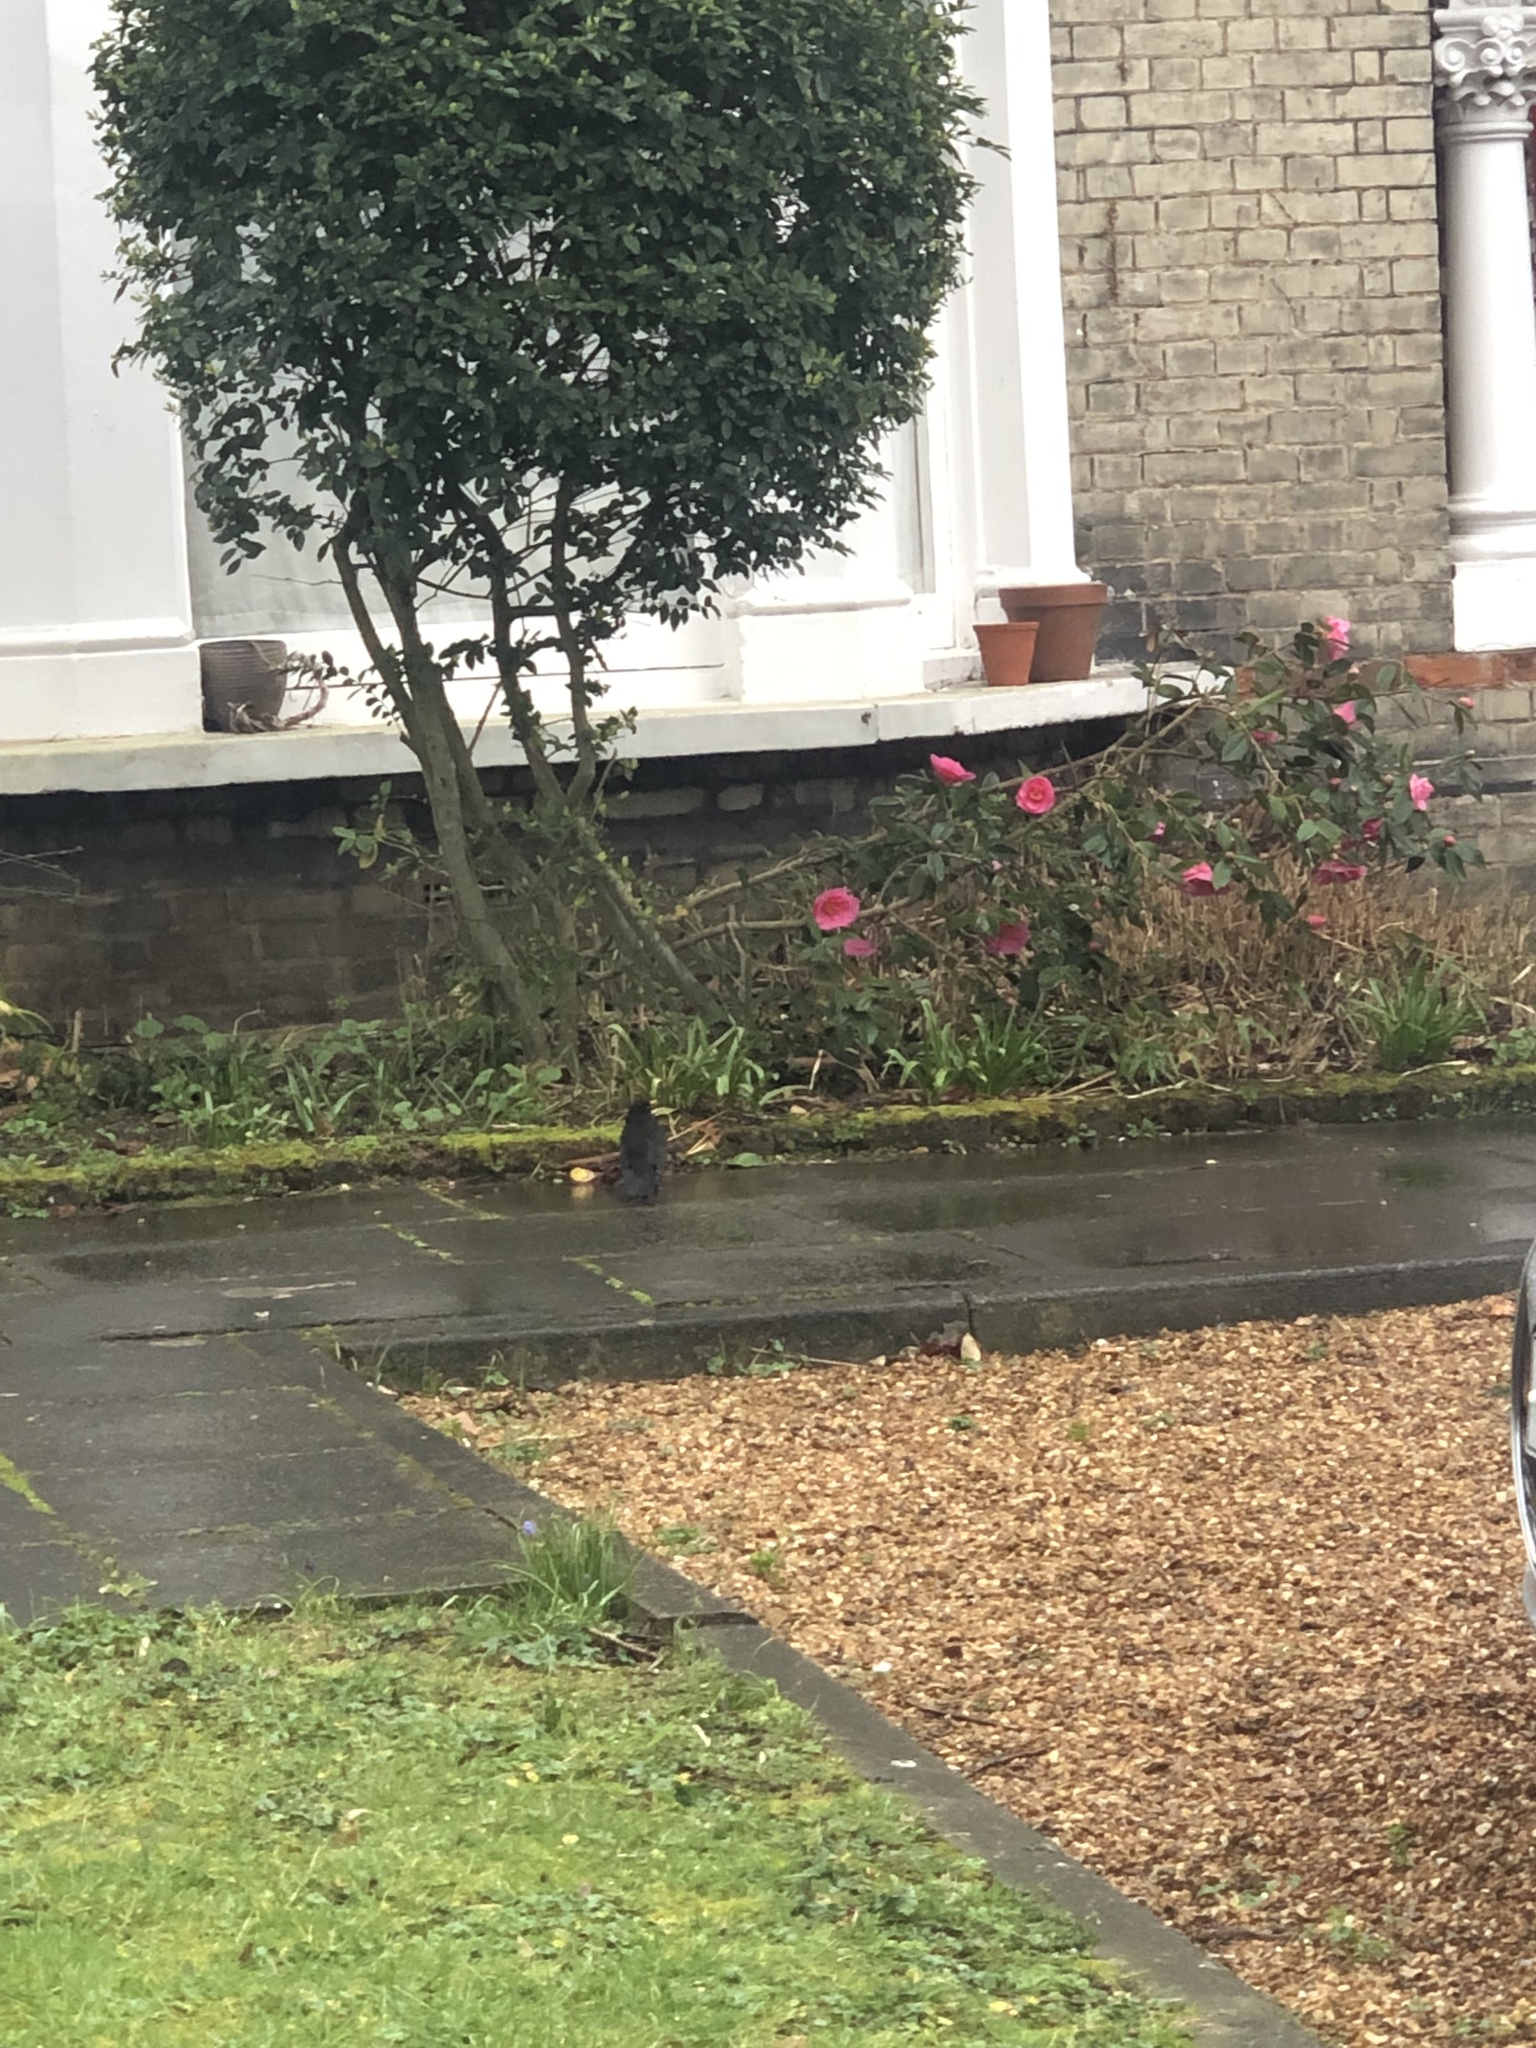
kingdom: Animalia
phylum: Chordata
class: Aves
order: Passeriformes
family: Turdidae
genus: Turdus
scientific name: Turdus merula
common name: Common blackbird
